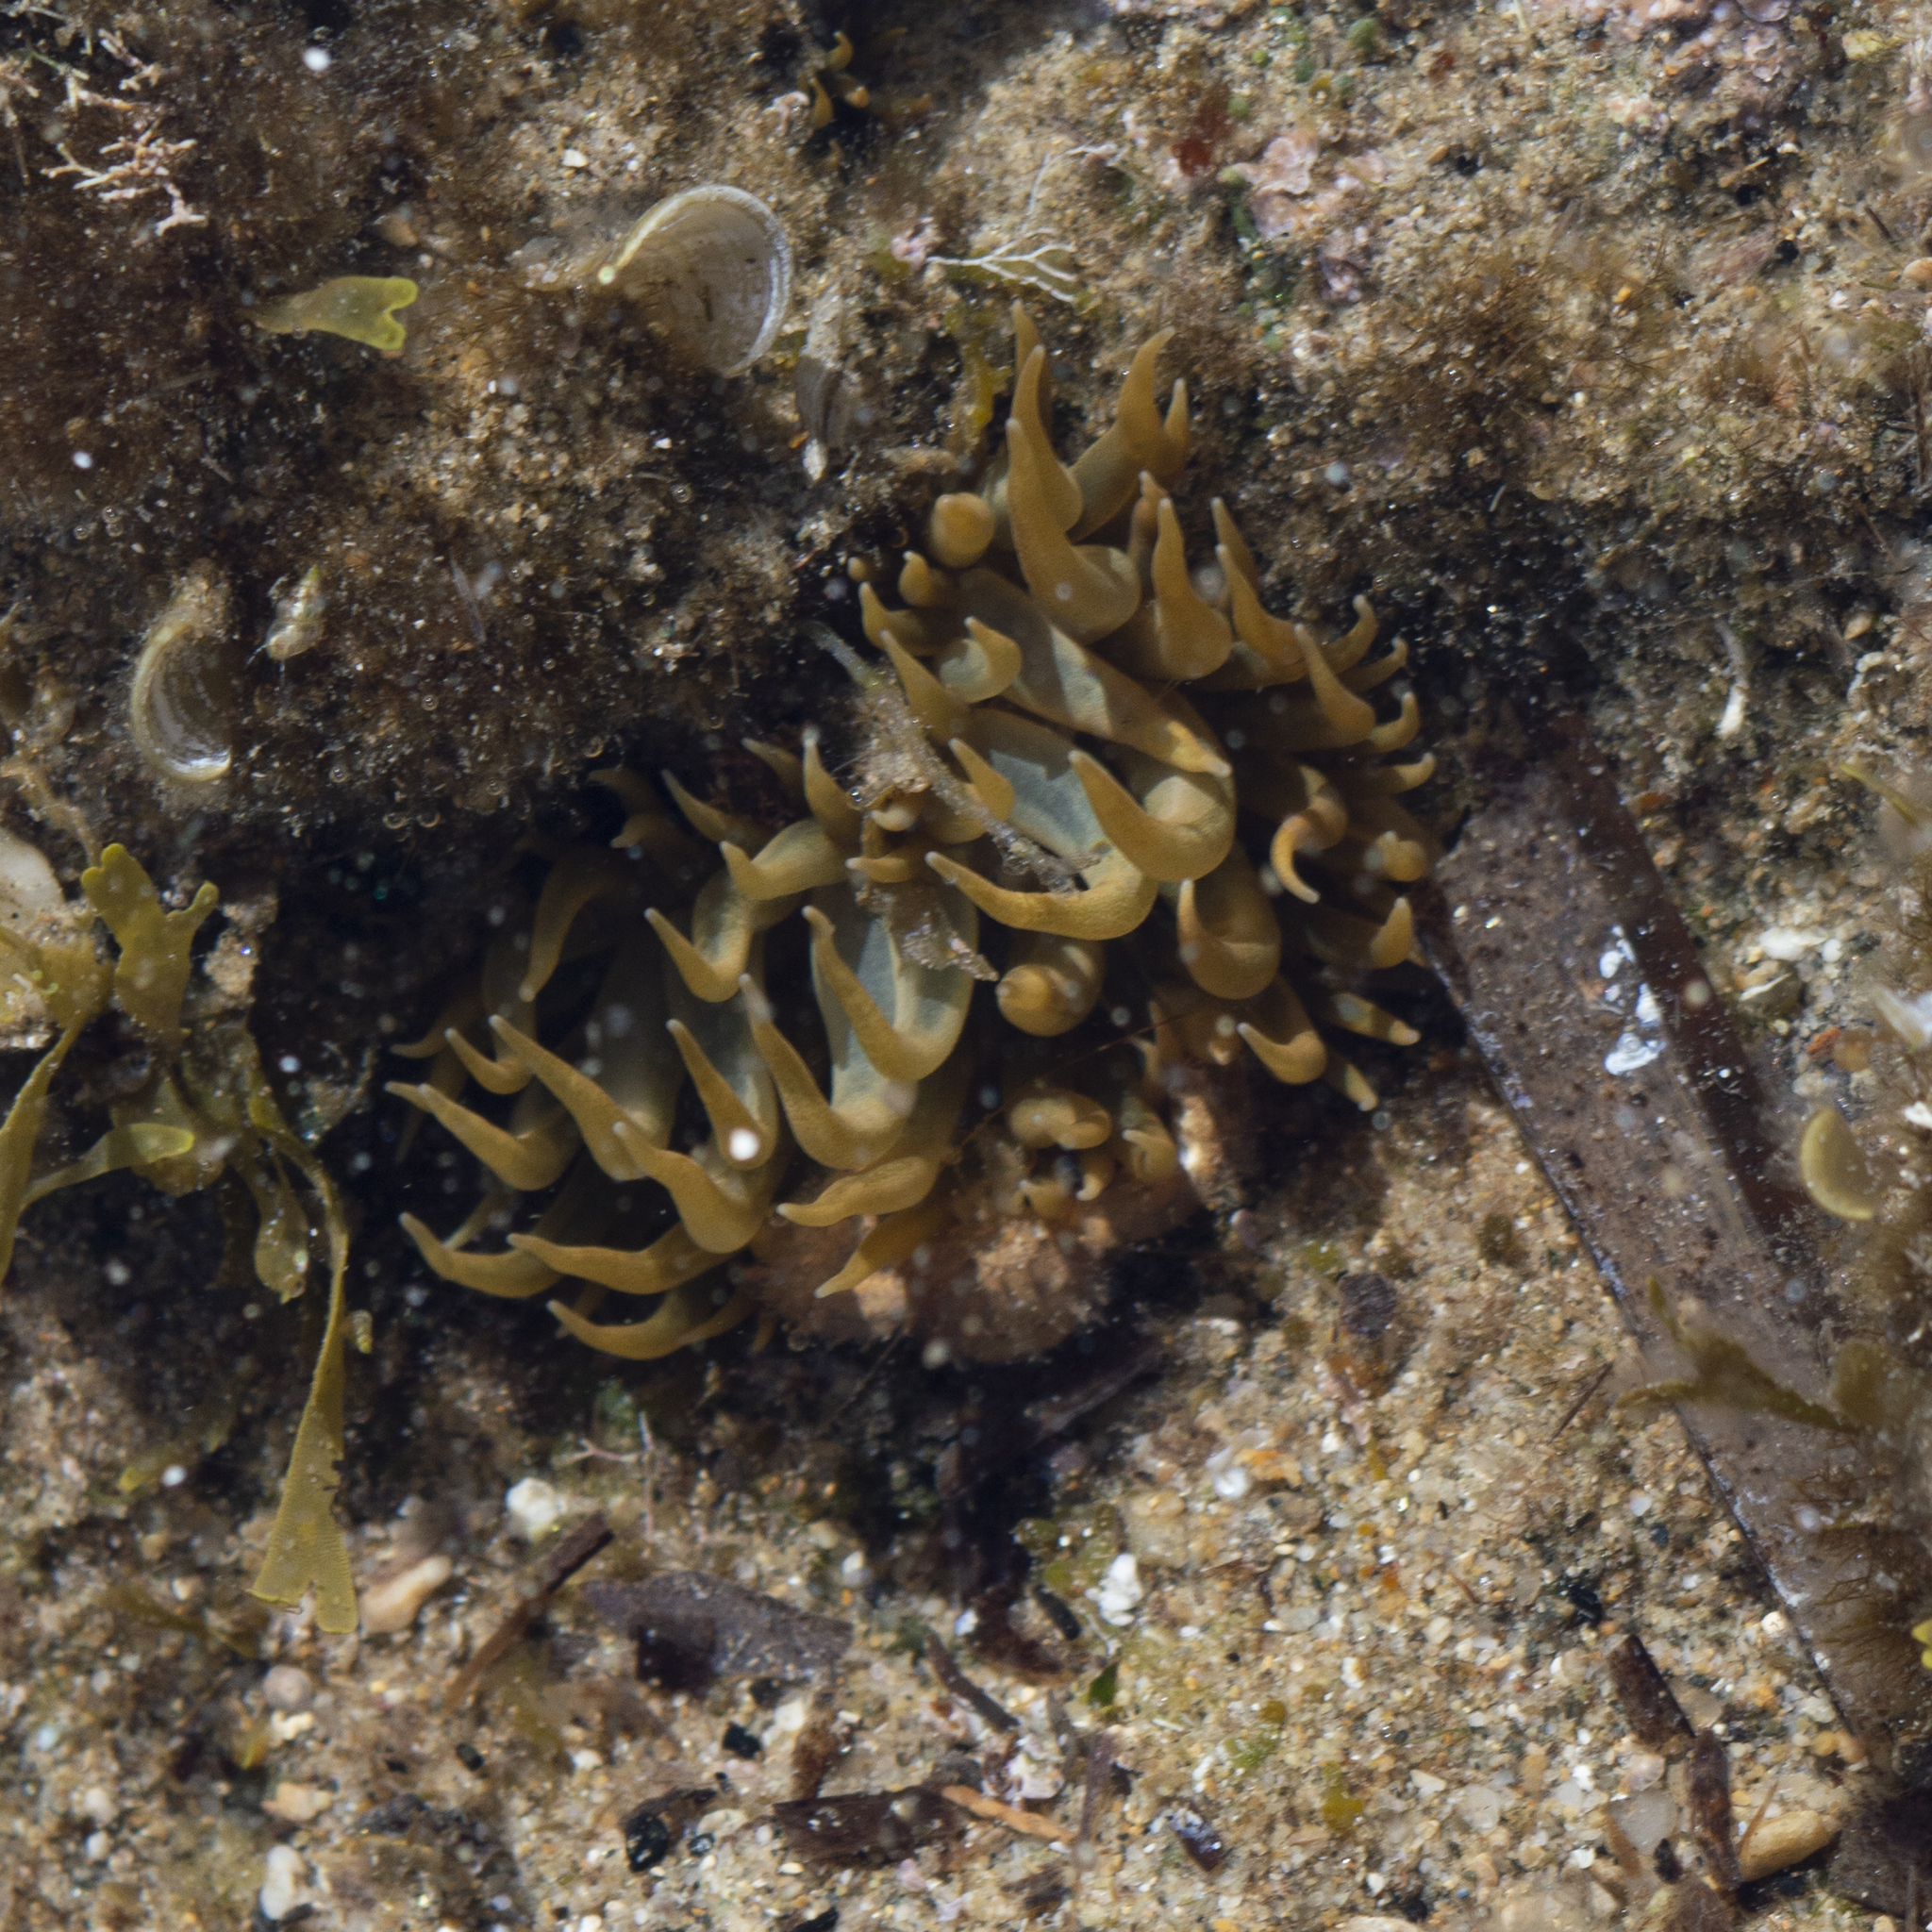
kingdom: Animalia
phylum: Cnidaria
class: Anthozoa
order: Actiniaria
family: Aiptasiidae
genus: Aiptasia
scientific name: Aiptasia couchii
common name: Trumpet anemone
